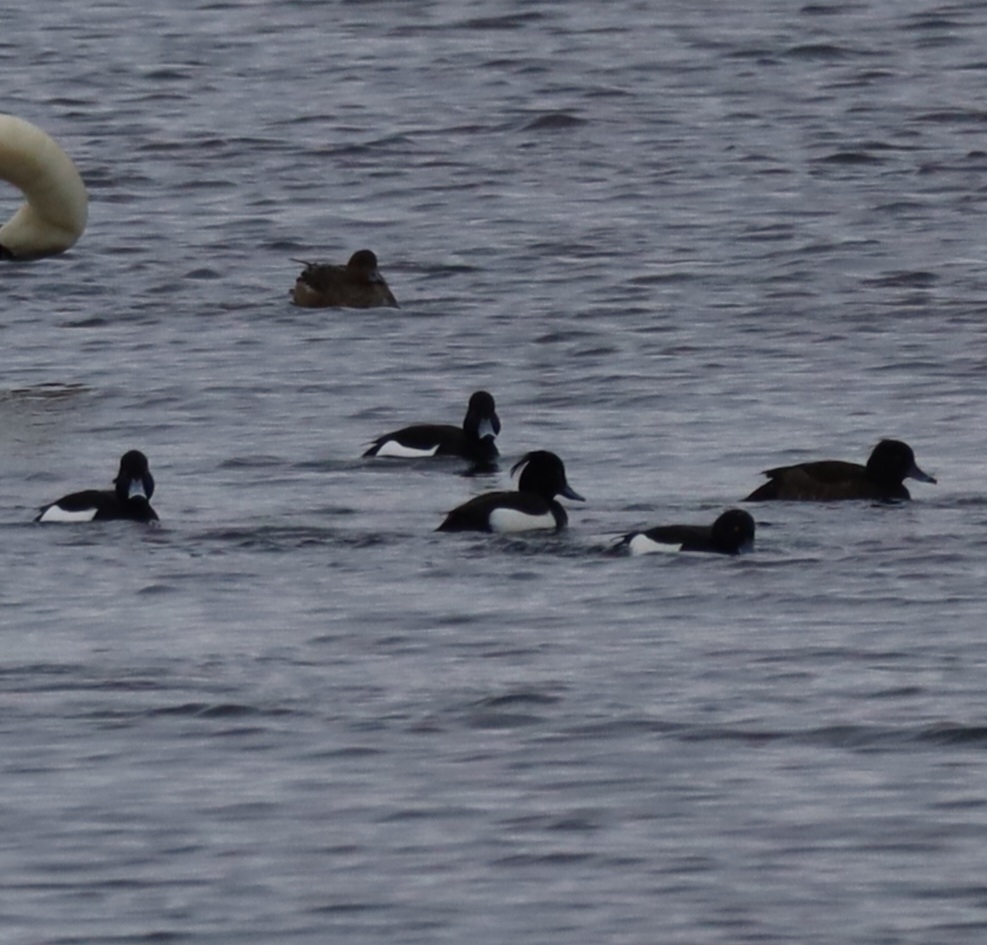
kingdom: Animalia
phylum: Chordata
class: Aves
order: Anseriformes
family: Anatidae
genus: Aythya
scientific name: Aythya fuligula
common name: Tufted duck
